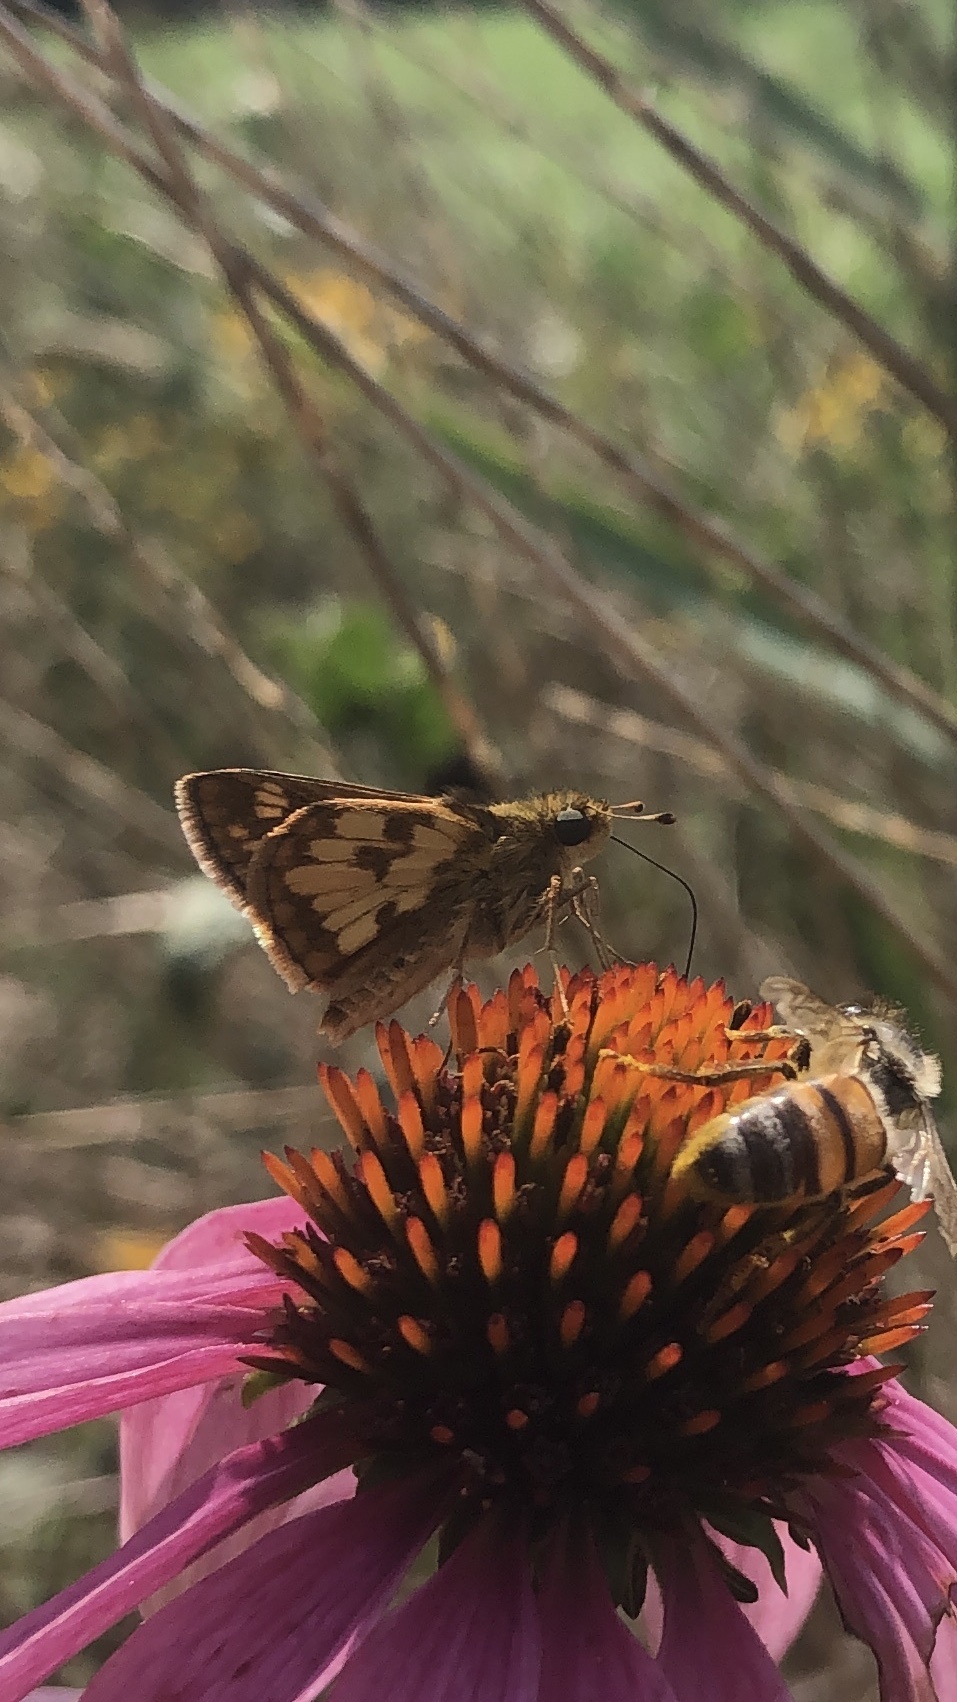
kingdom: Animalia
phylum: Arthropoda
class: Insecta
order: Lepidoptera
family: Hesperiidae
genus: Polites
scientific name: Polites coras
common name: Peck's skipper
